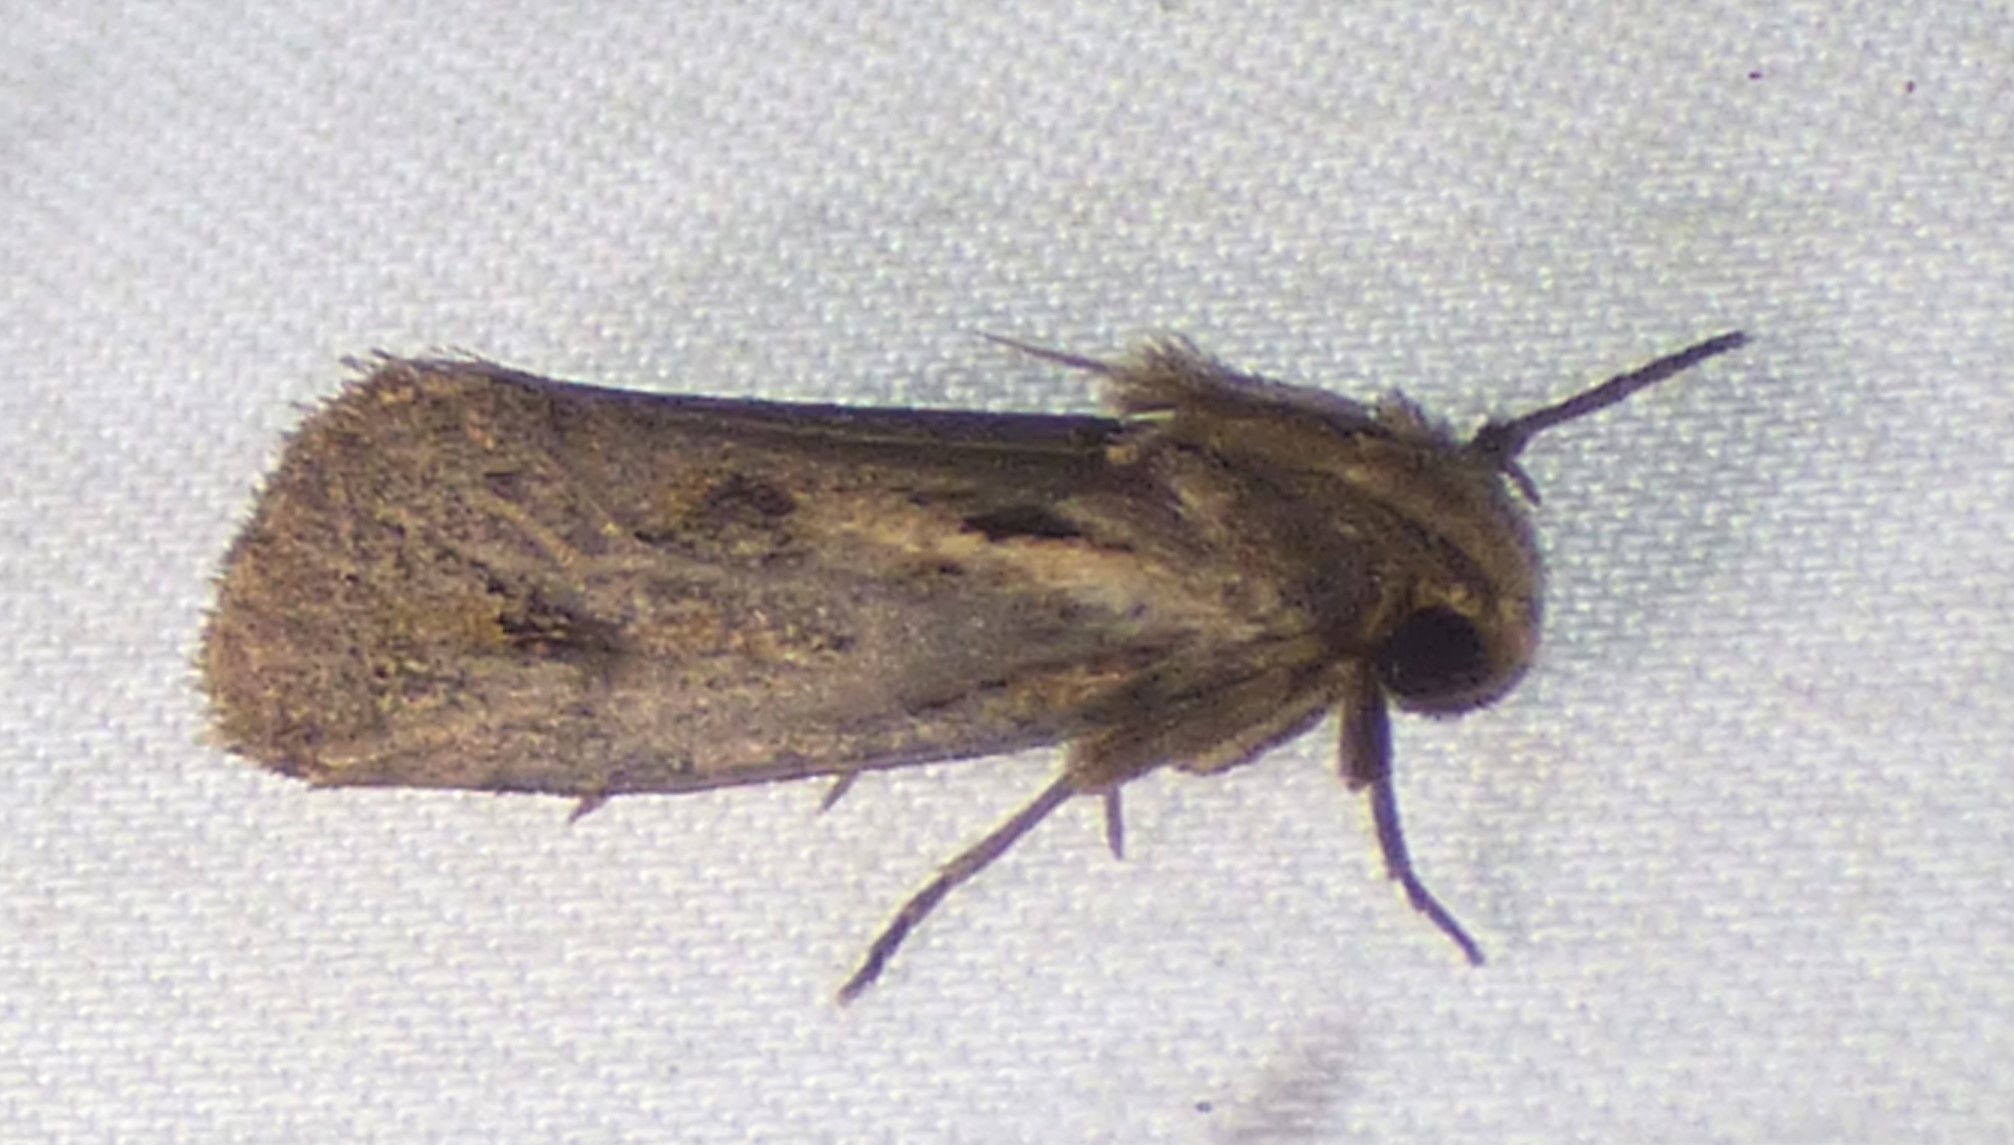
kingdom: Animalia
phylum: Arthropoda
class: Insecta
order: Lepidoptera
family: Tineidae
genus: Acrolophus
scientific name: Acrolophus popeanella
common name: Clemens' grass tubeworm moth
